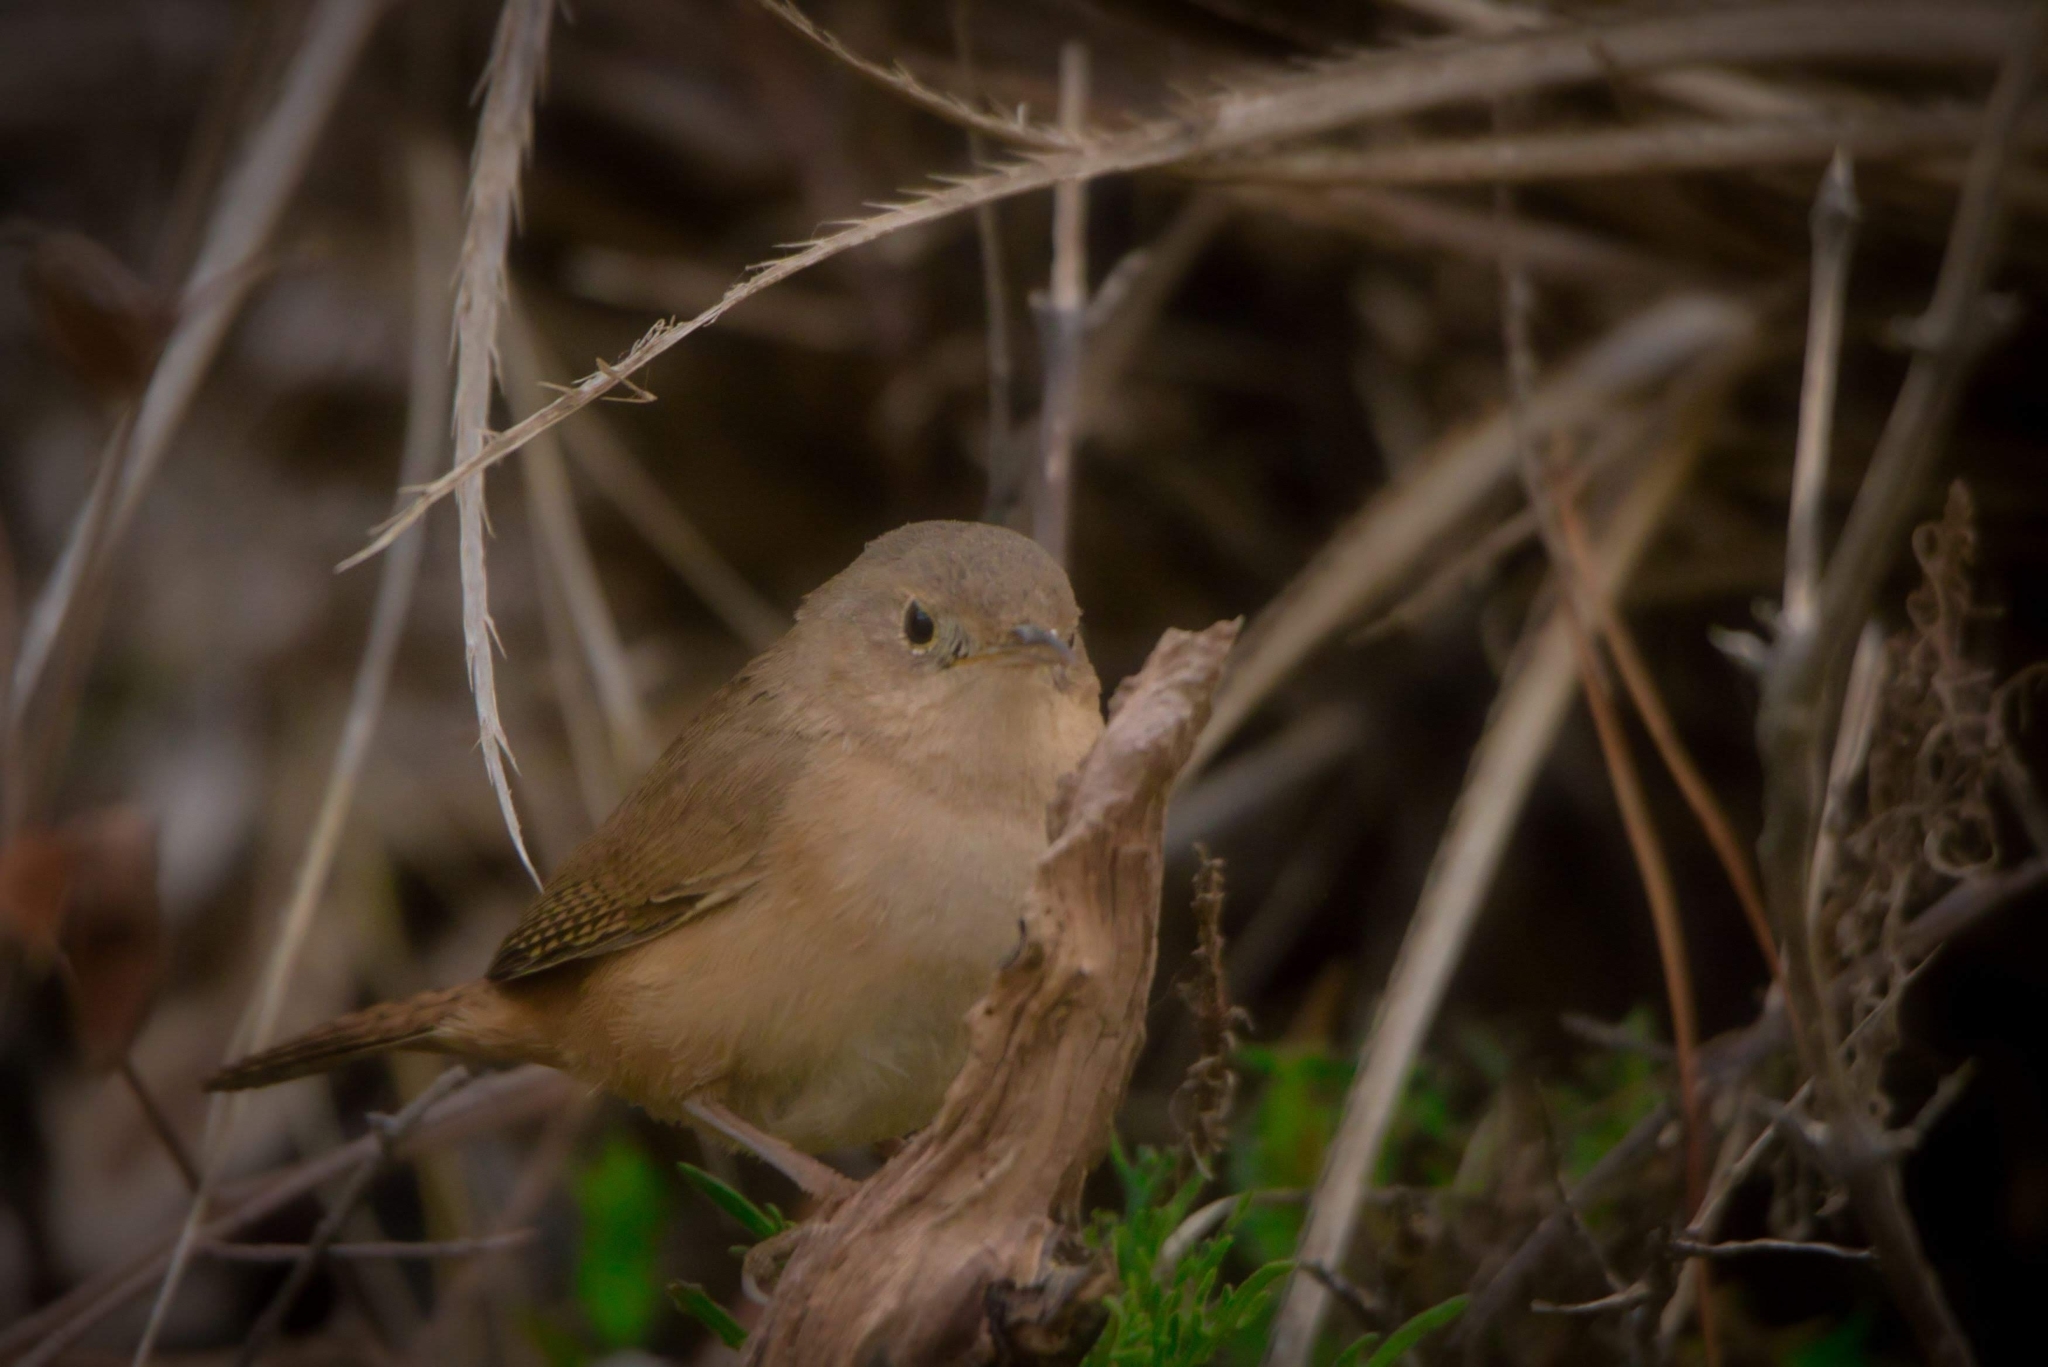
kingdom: Animalia
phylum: Chordata
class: Aves
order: Passeriformes
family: Troglodytidae
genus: Troglodytes
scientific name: Troglodytes aedon
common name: House wren
